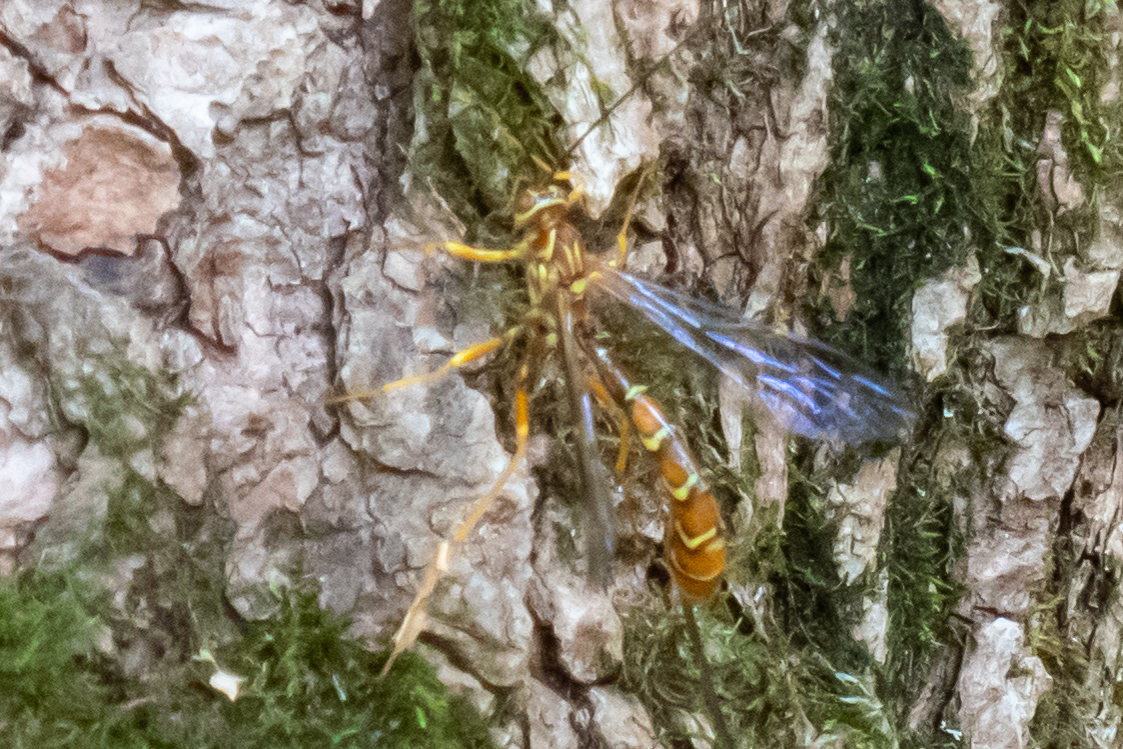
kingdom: Animalia
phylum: Arthropoda
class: Insecta
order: Hymenoptera
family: Ichneumonidae
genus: Megarhyssa
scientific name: Megarhyssa greenei
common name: Greene's giant ichneumonid wasp
